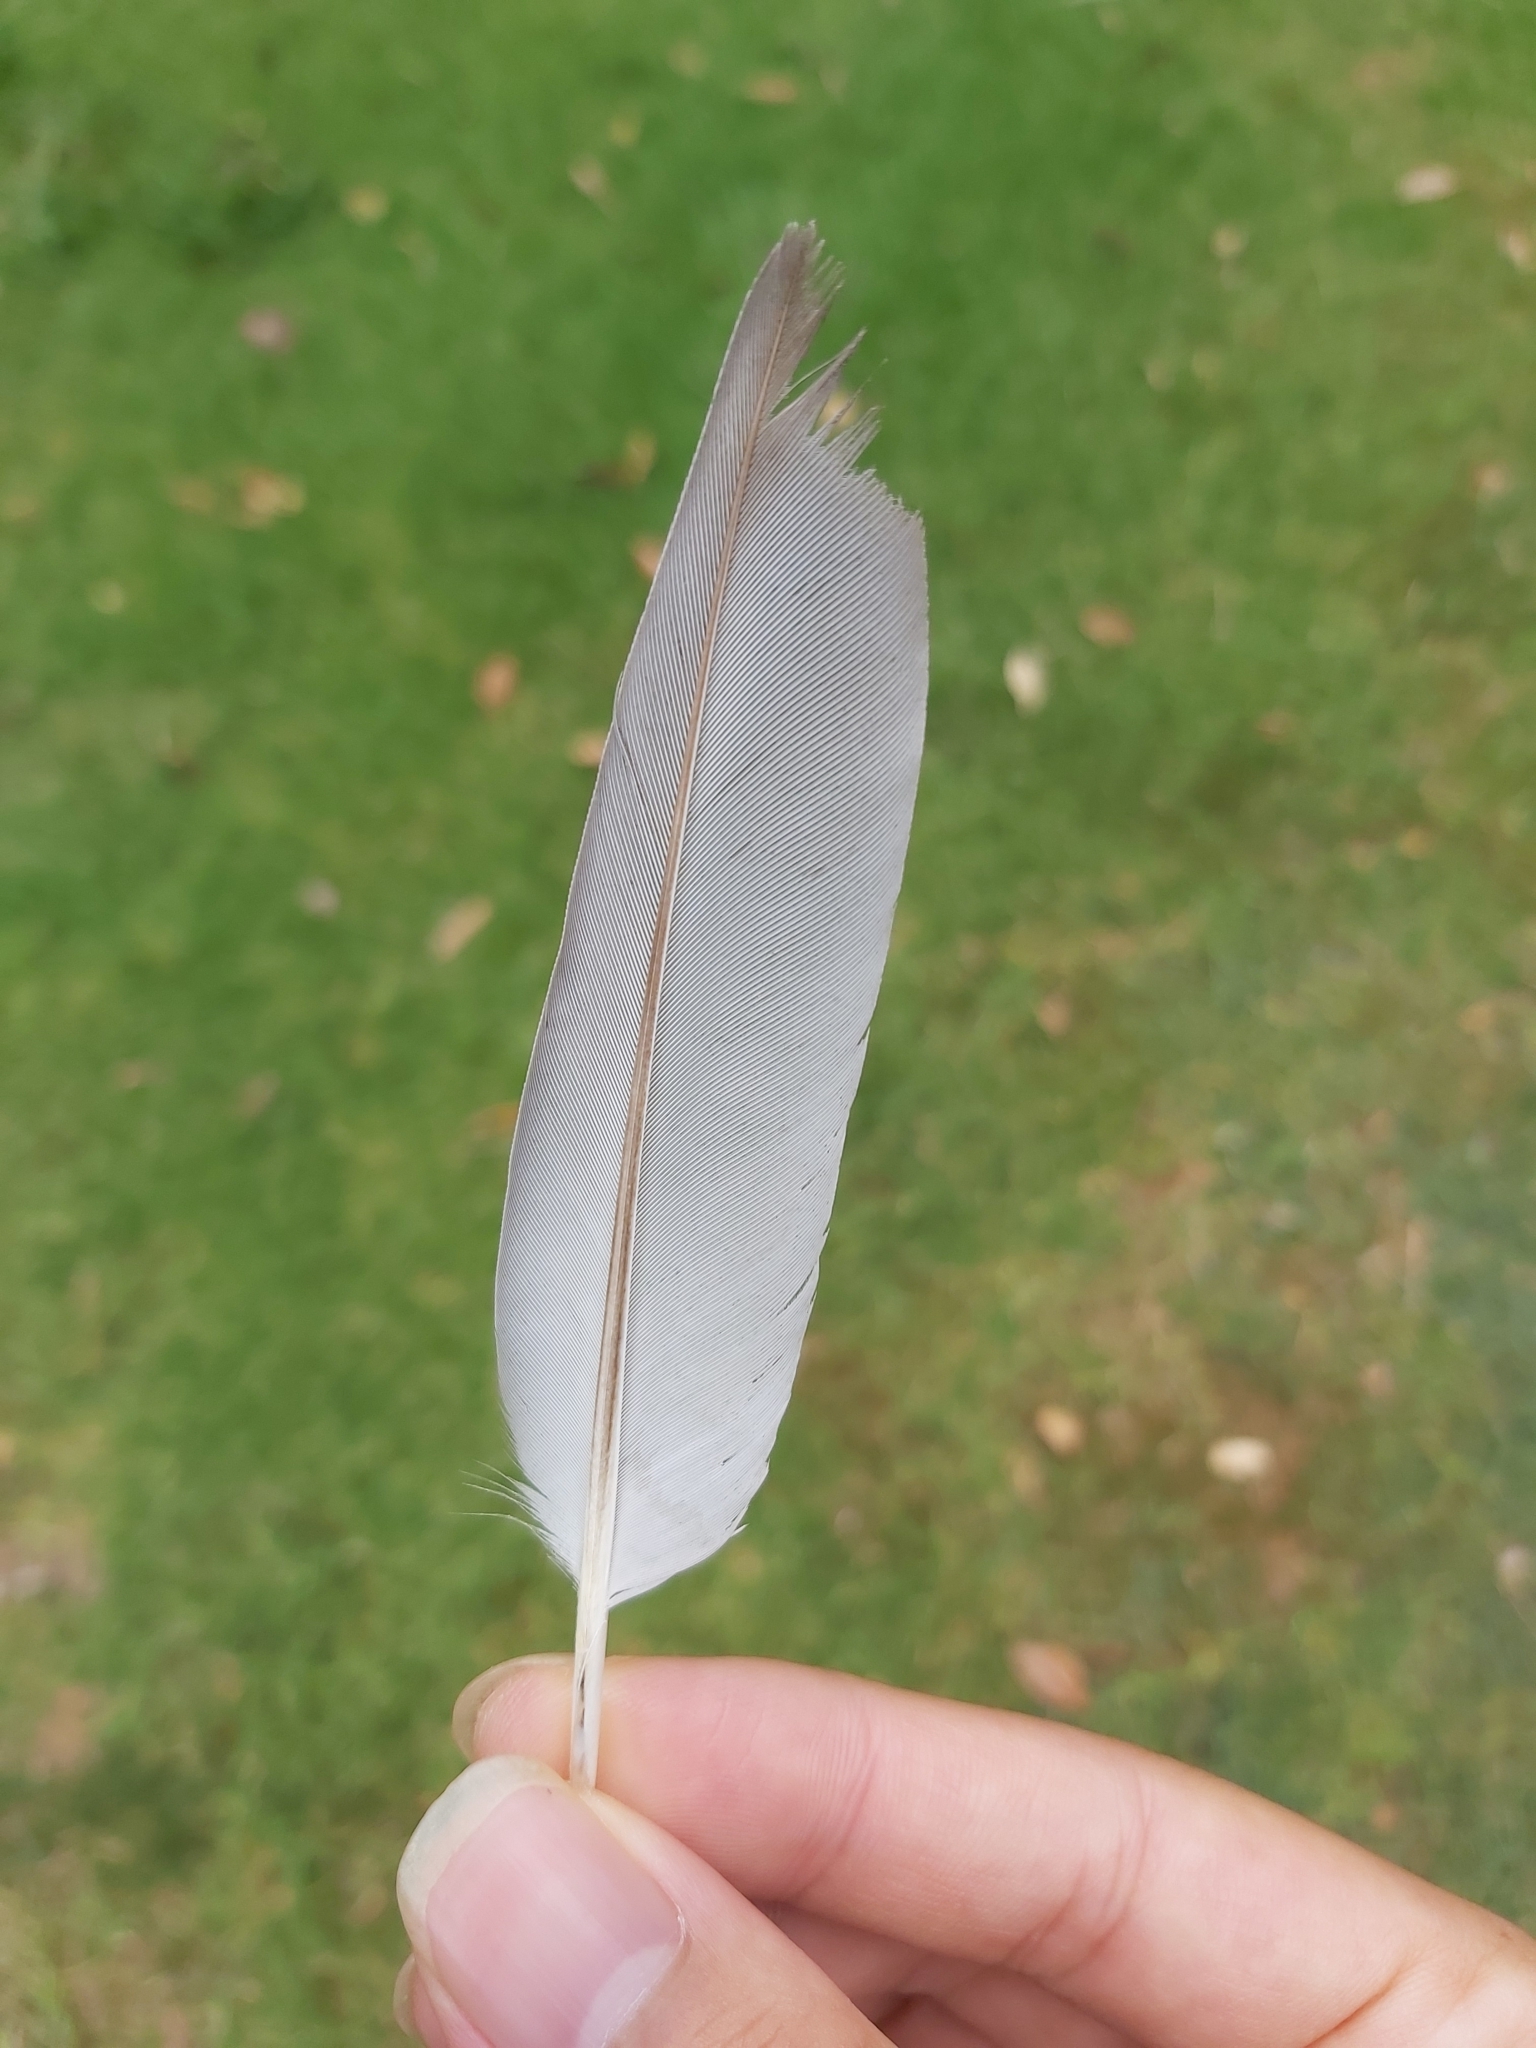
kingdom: Animalia
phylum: Chordata
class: Aves
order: Columbiformes
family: Columbidae
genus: Columba
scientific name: Columba livia
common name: Rock pigeon
